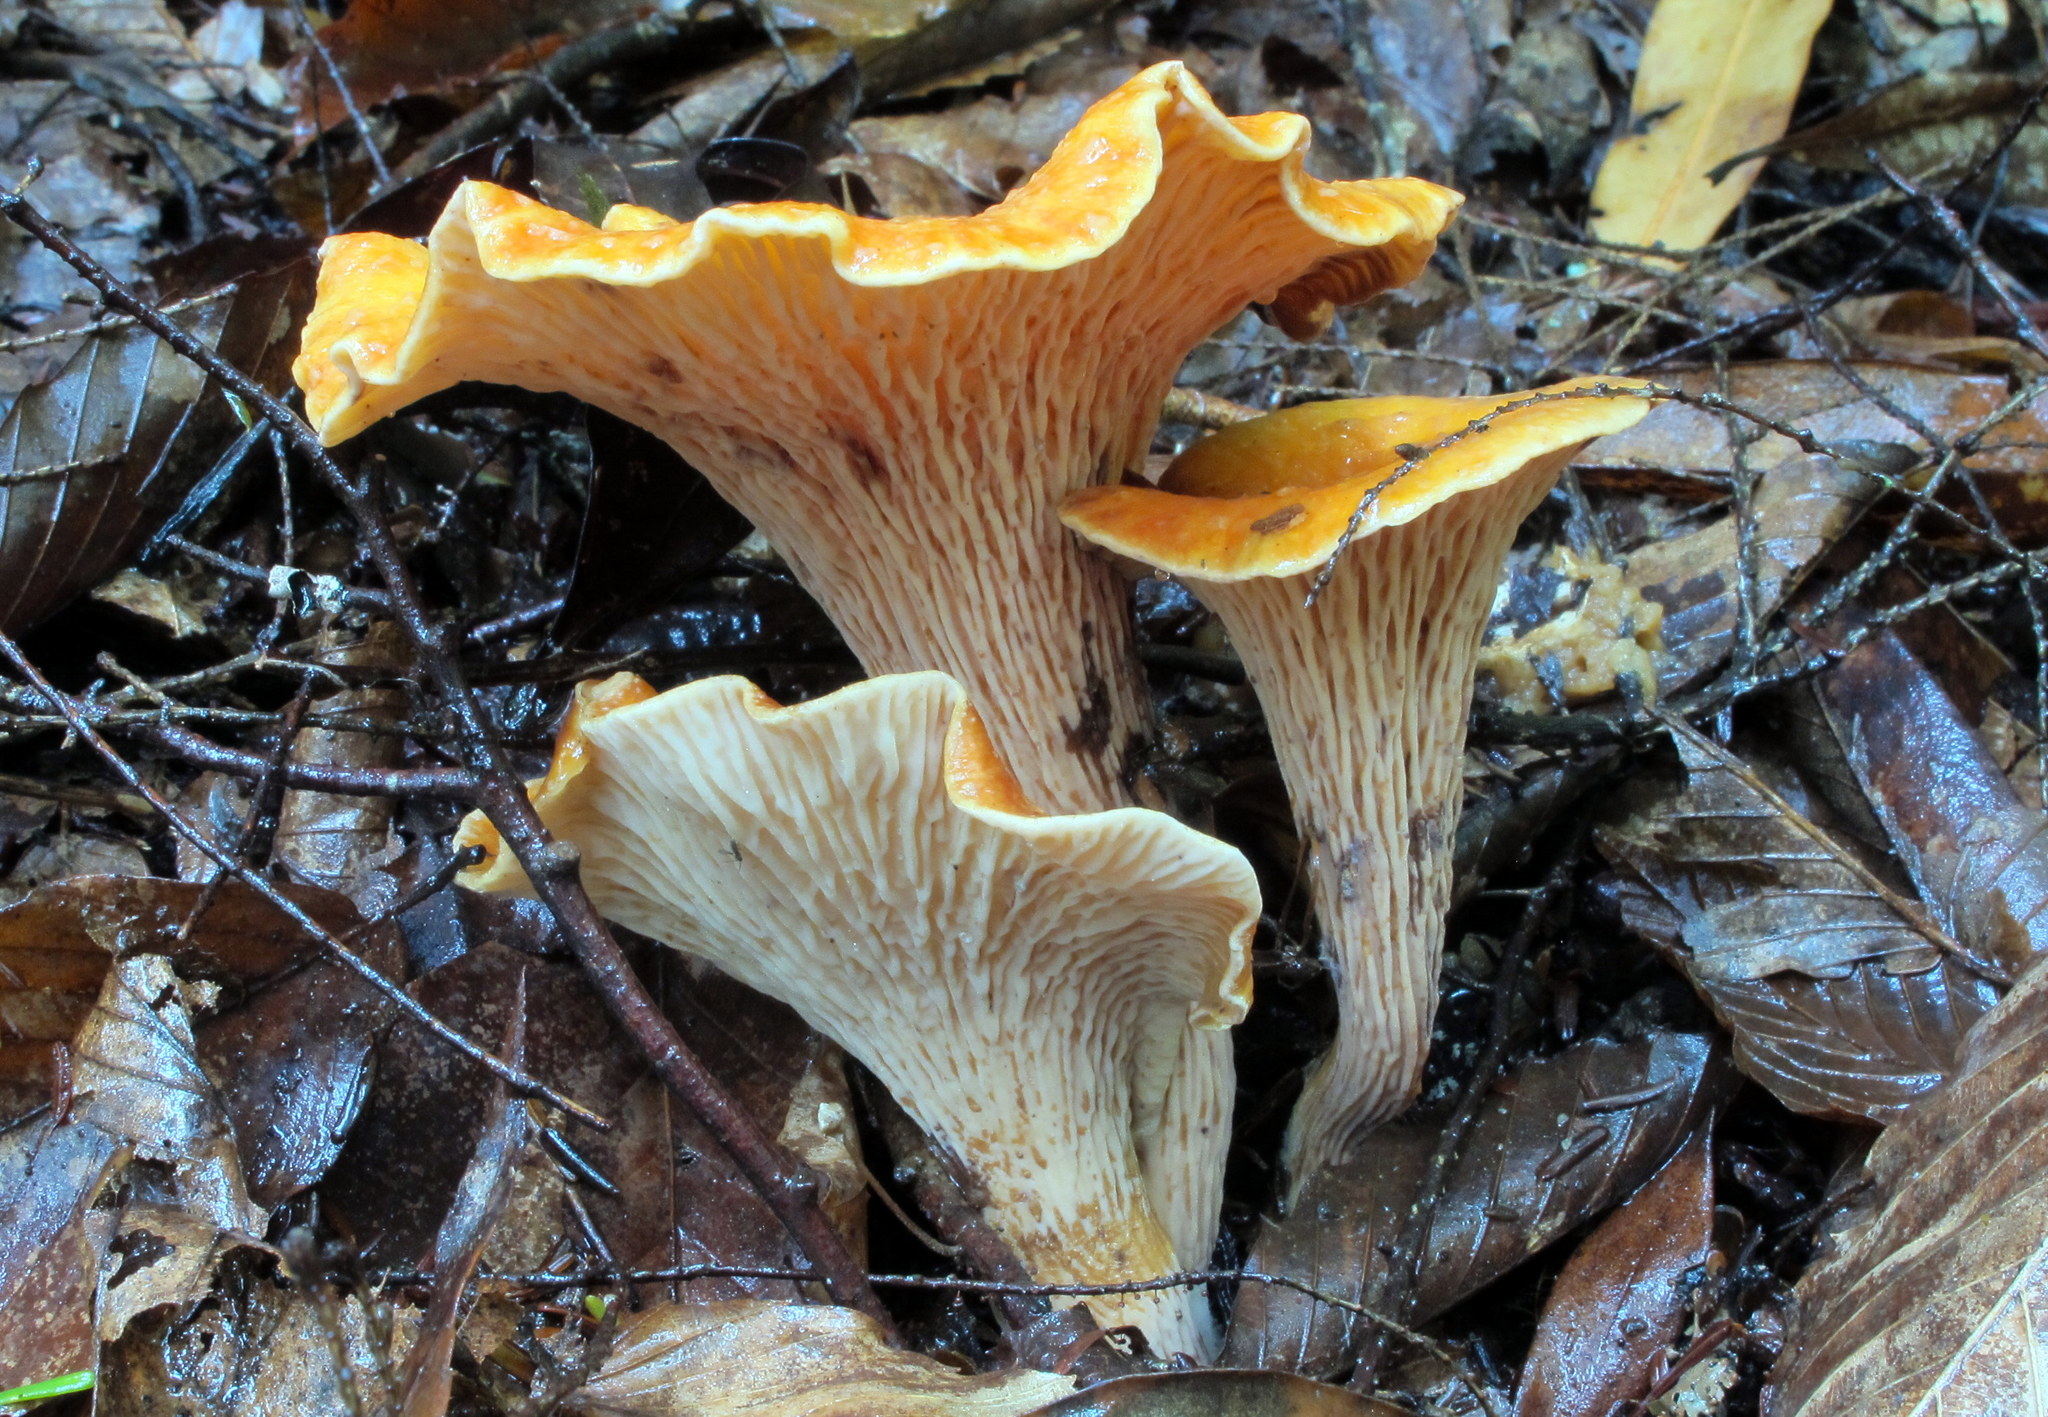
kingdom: Fungi
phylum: Basidiomycota
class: Agaricomycetes
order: Gomphales
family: Gomphaceae
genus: Turbinellus
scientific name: Turbinellus floccosus
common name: Scaly chanterelle
